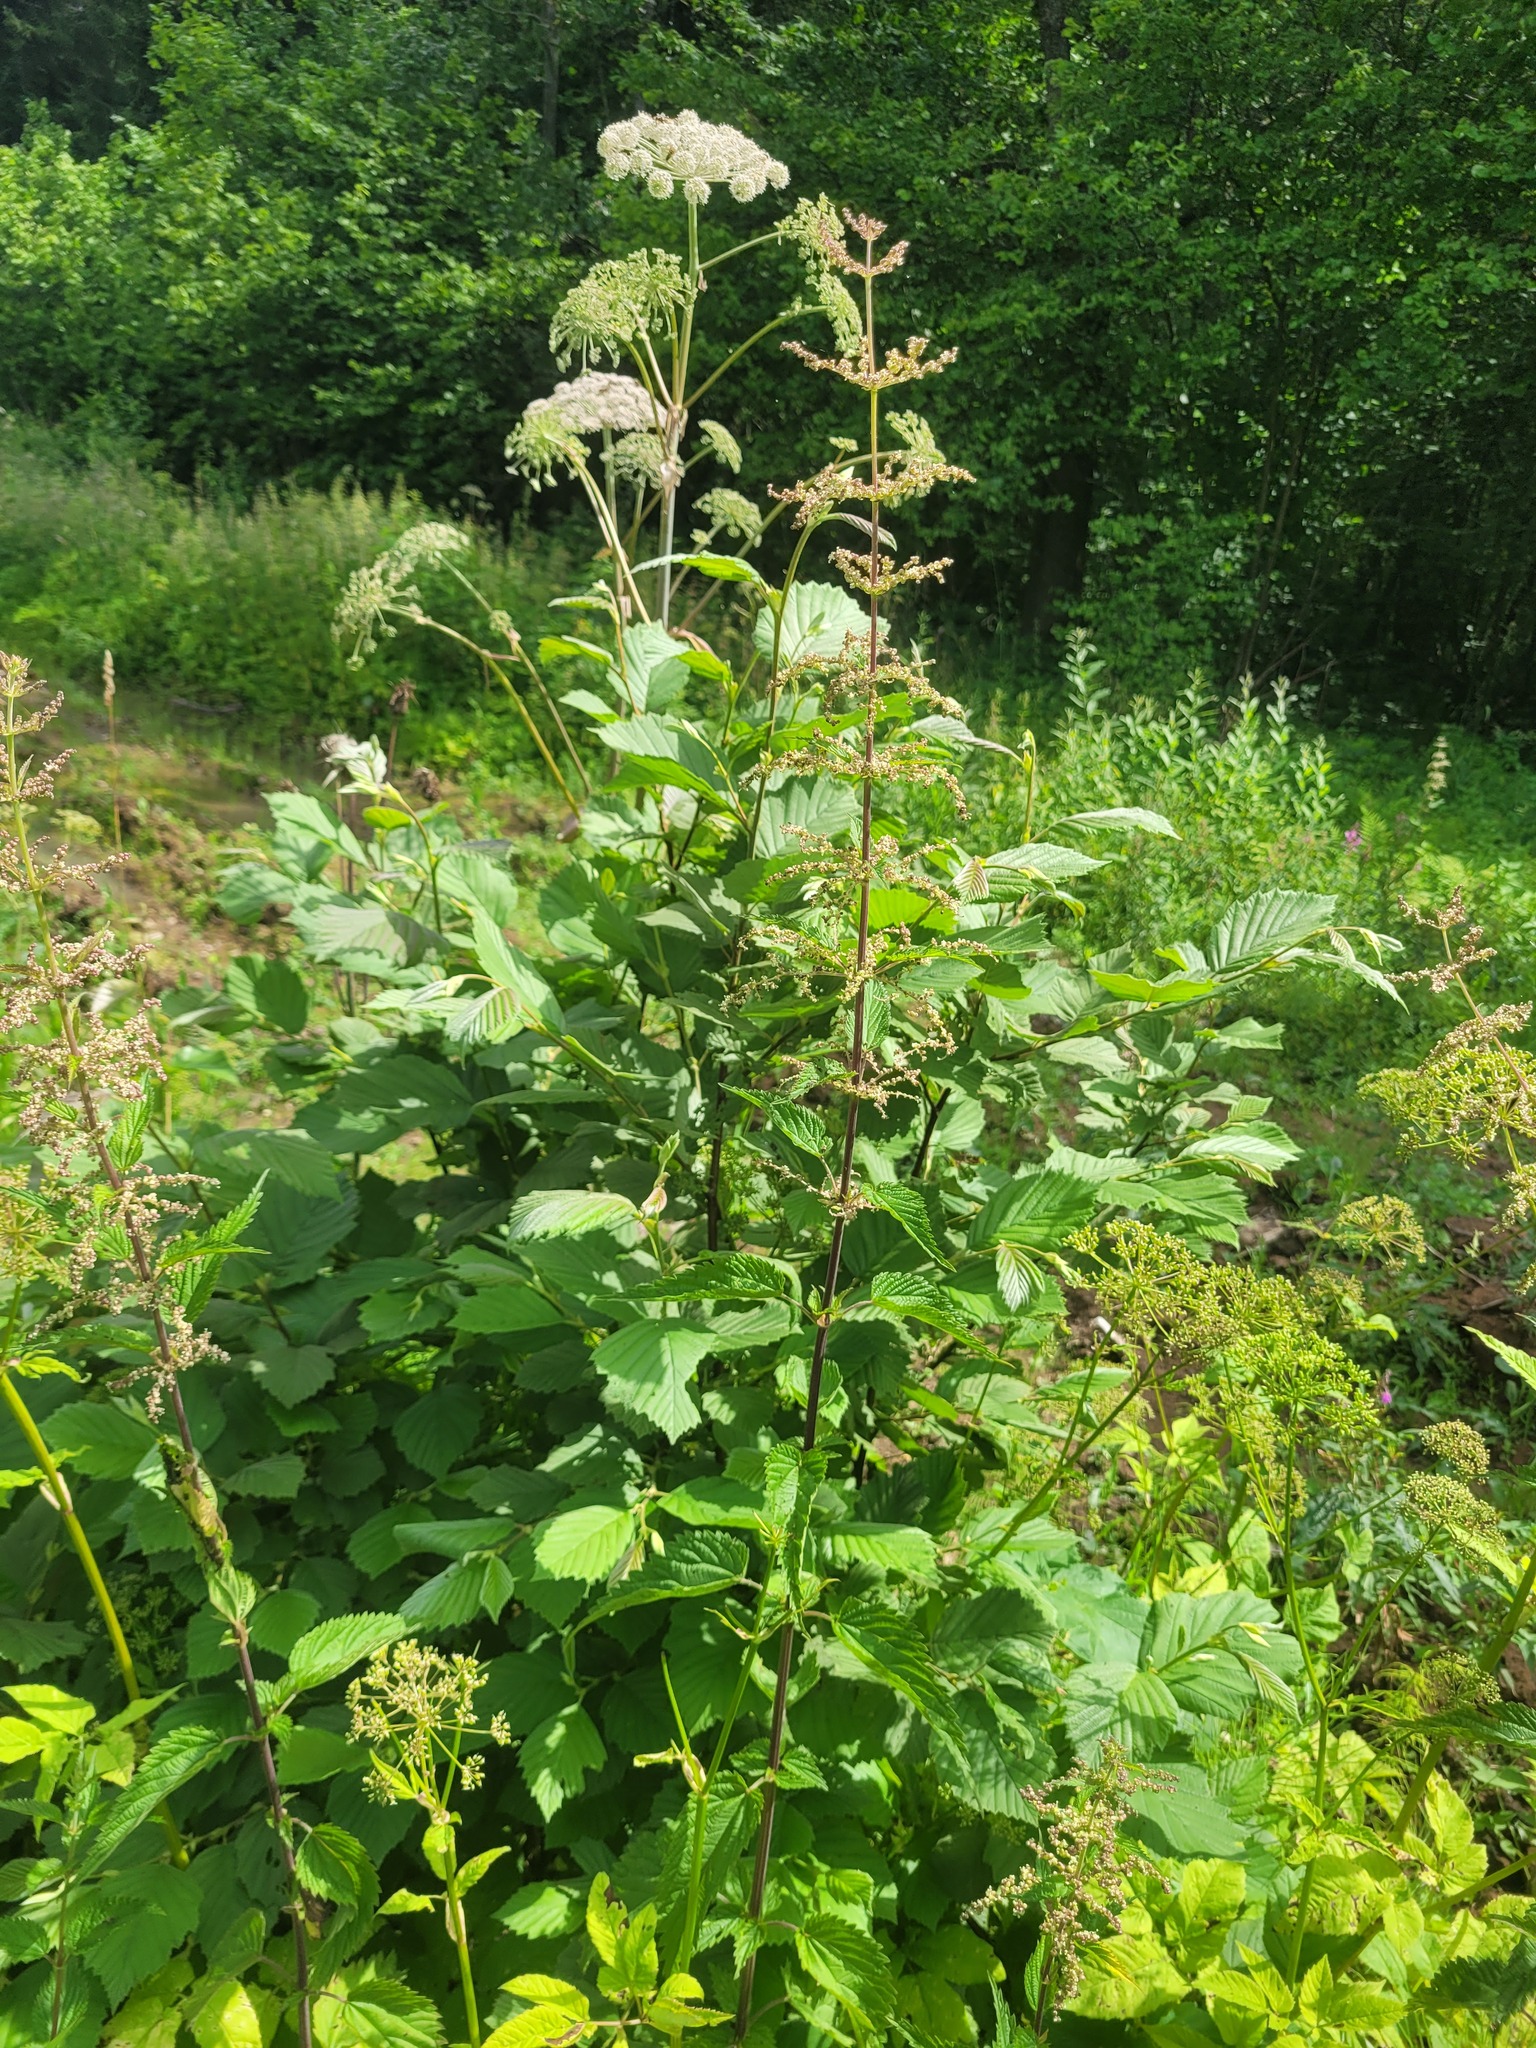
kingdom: Plantae
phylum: Tracheophyta
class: Magnoliopsida
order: Fagales
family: Betulaceae
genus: Alnus
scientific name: Alnus incana
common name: Grey alder
